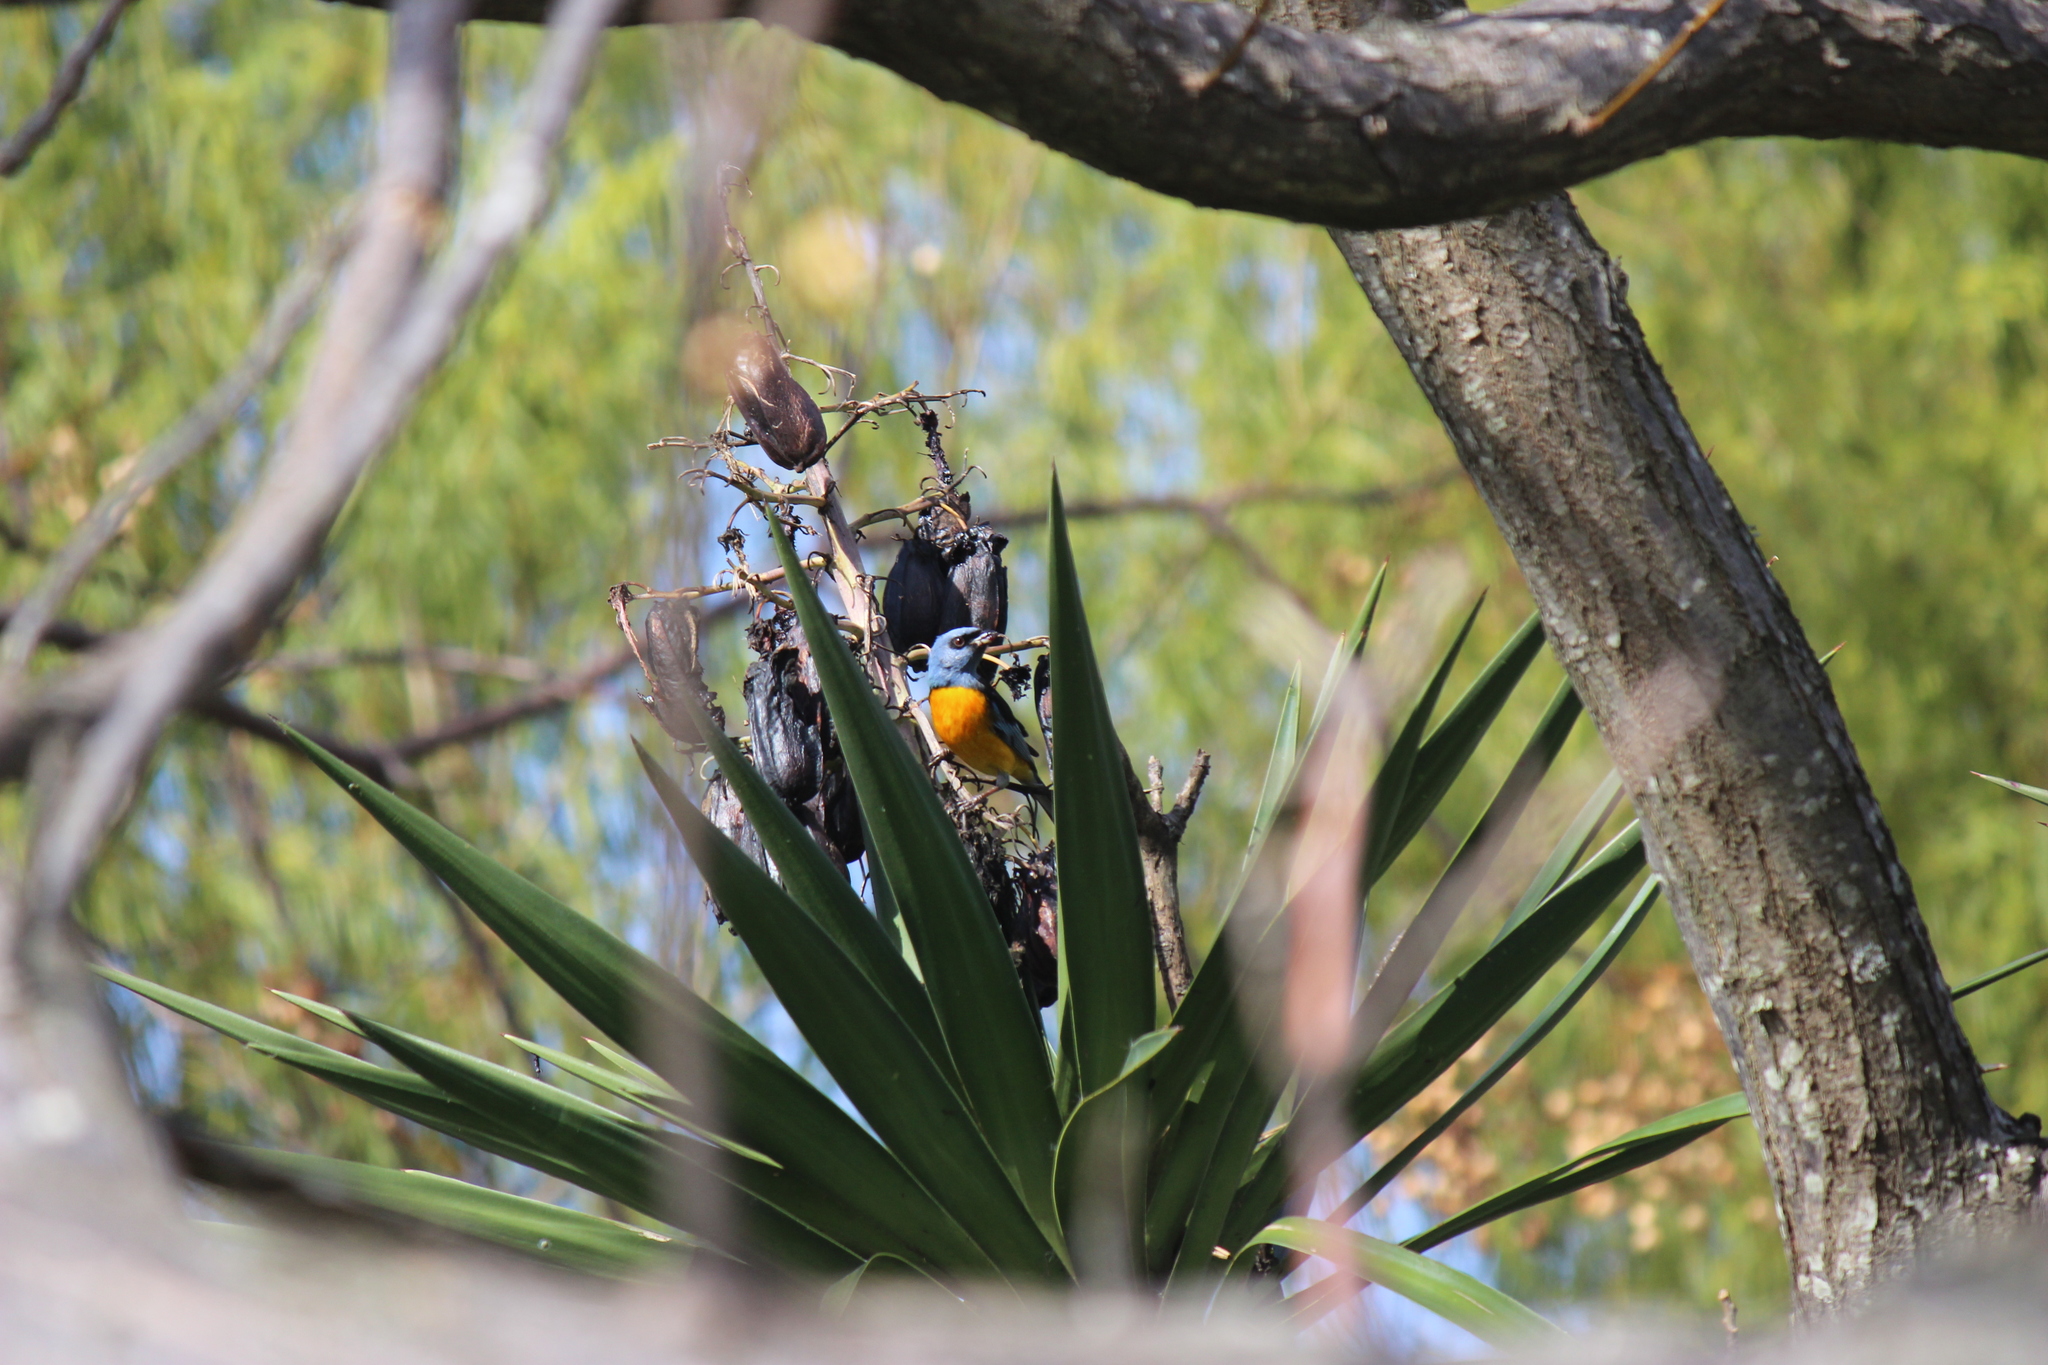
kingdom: Animalia
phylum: Chordata
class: Aves
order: Passeriformes
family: Thraupidae
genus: Rauenia
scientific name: Rauenia bonariensis
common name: Blue-and-yellow tanager
